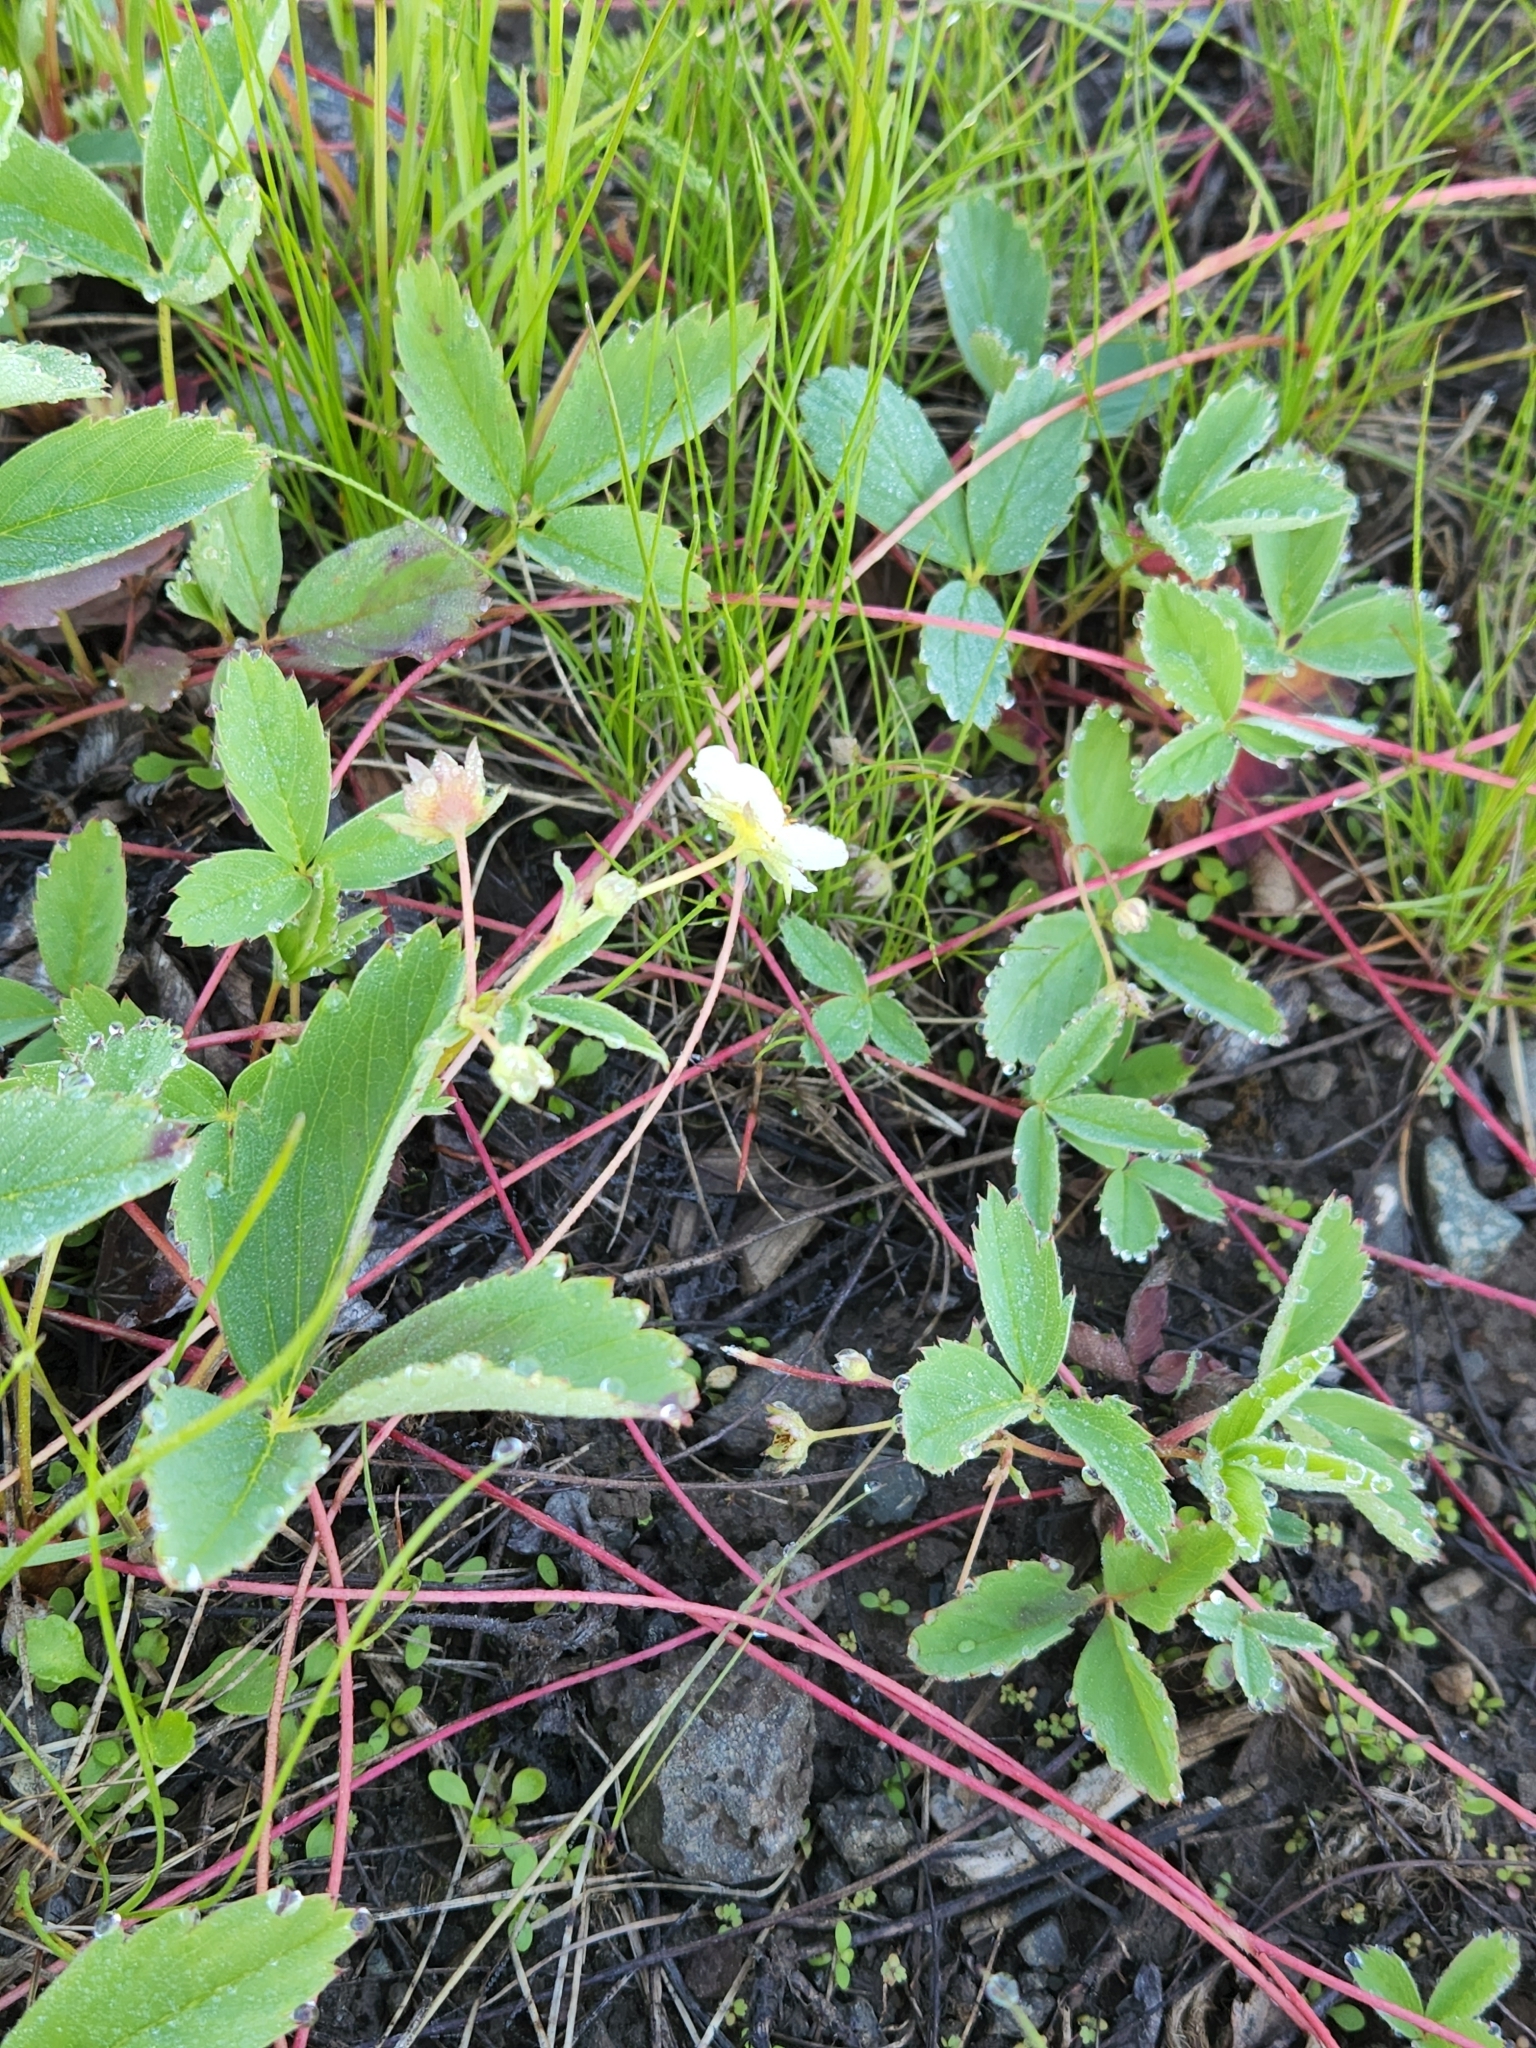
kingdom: Plantae
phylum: Tracheophyta
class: Magnoliopsida
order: Rosales
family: Rosaceae
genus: Fragaria
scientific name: Fragaria virginiana
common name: Thickleaved wild strawberry
